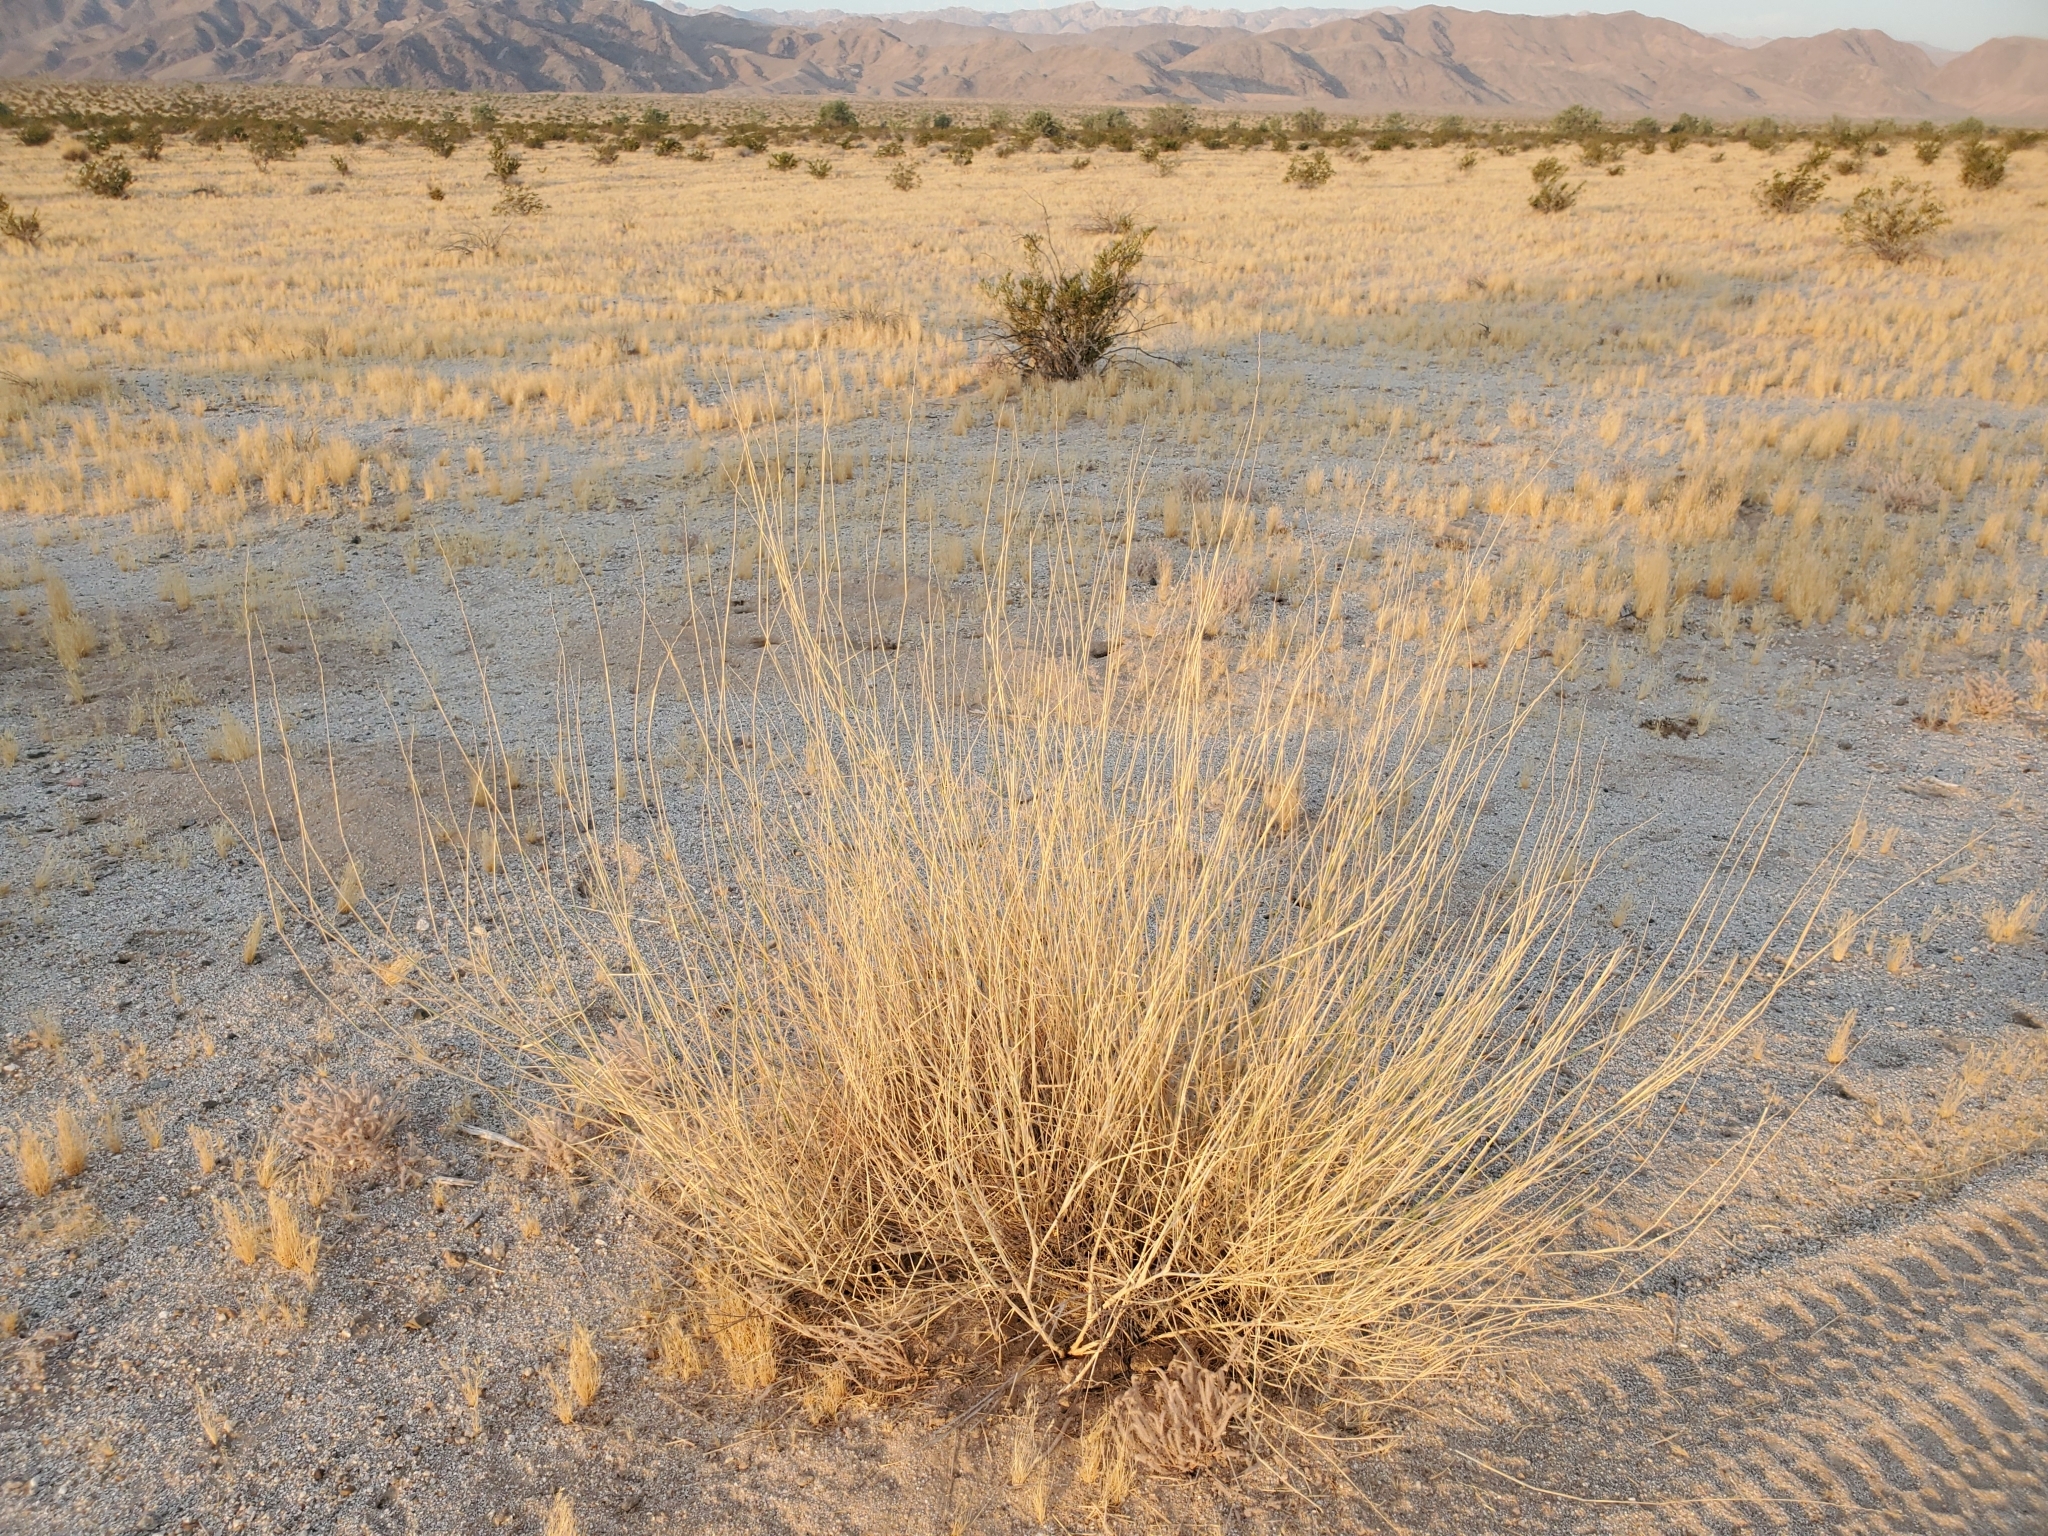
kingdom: Plantae
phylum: Tracheophyta
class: Liliopsida
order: Poales
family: Poaceae
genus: Hilaria
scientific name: Hilaria rigida
